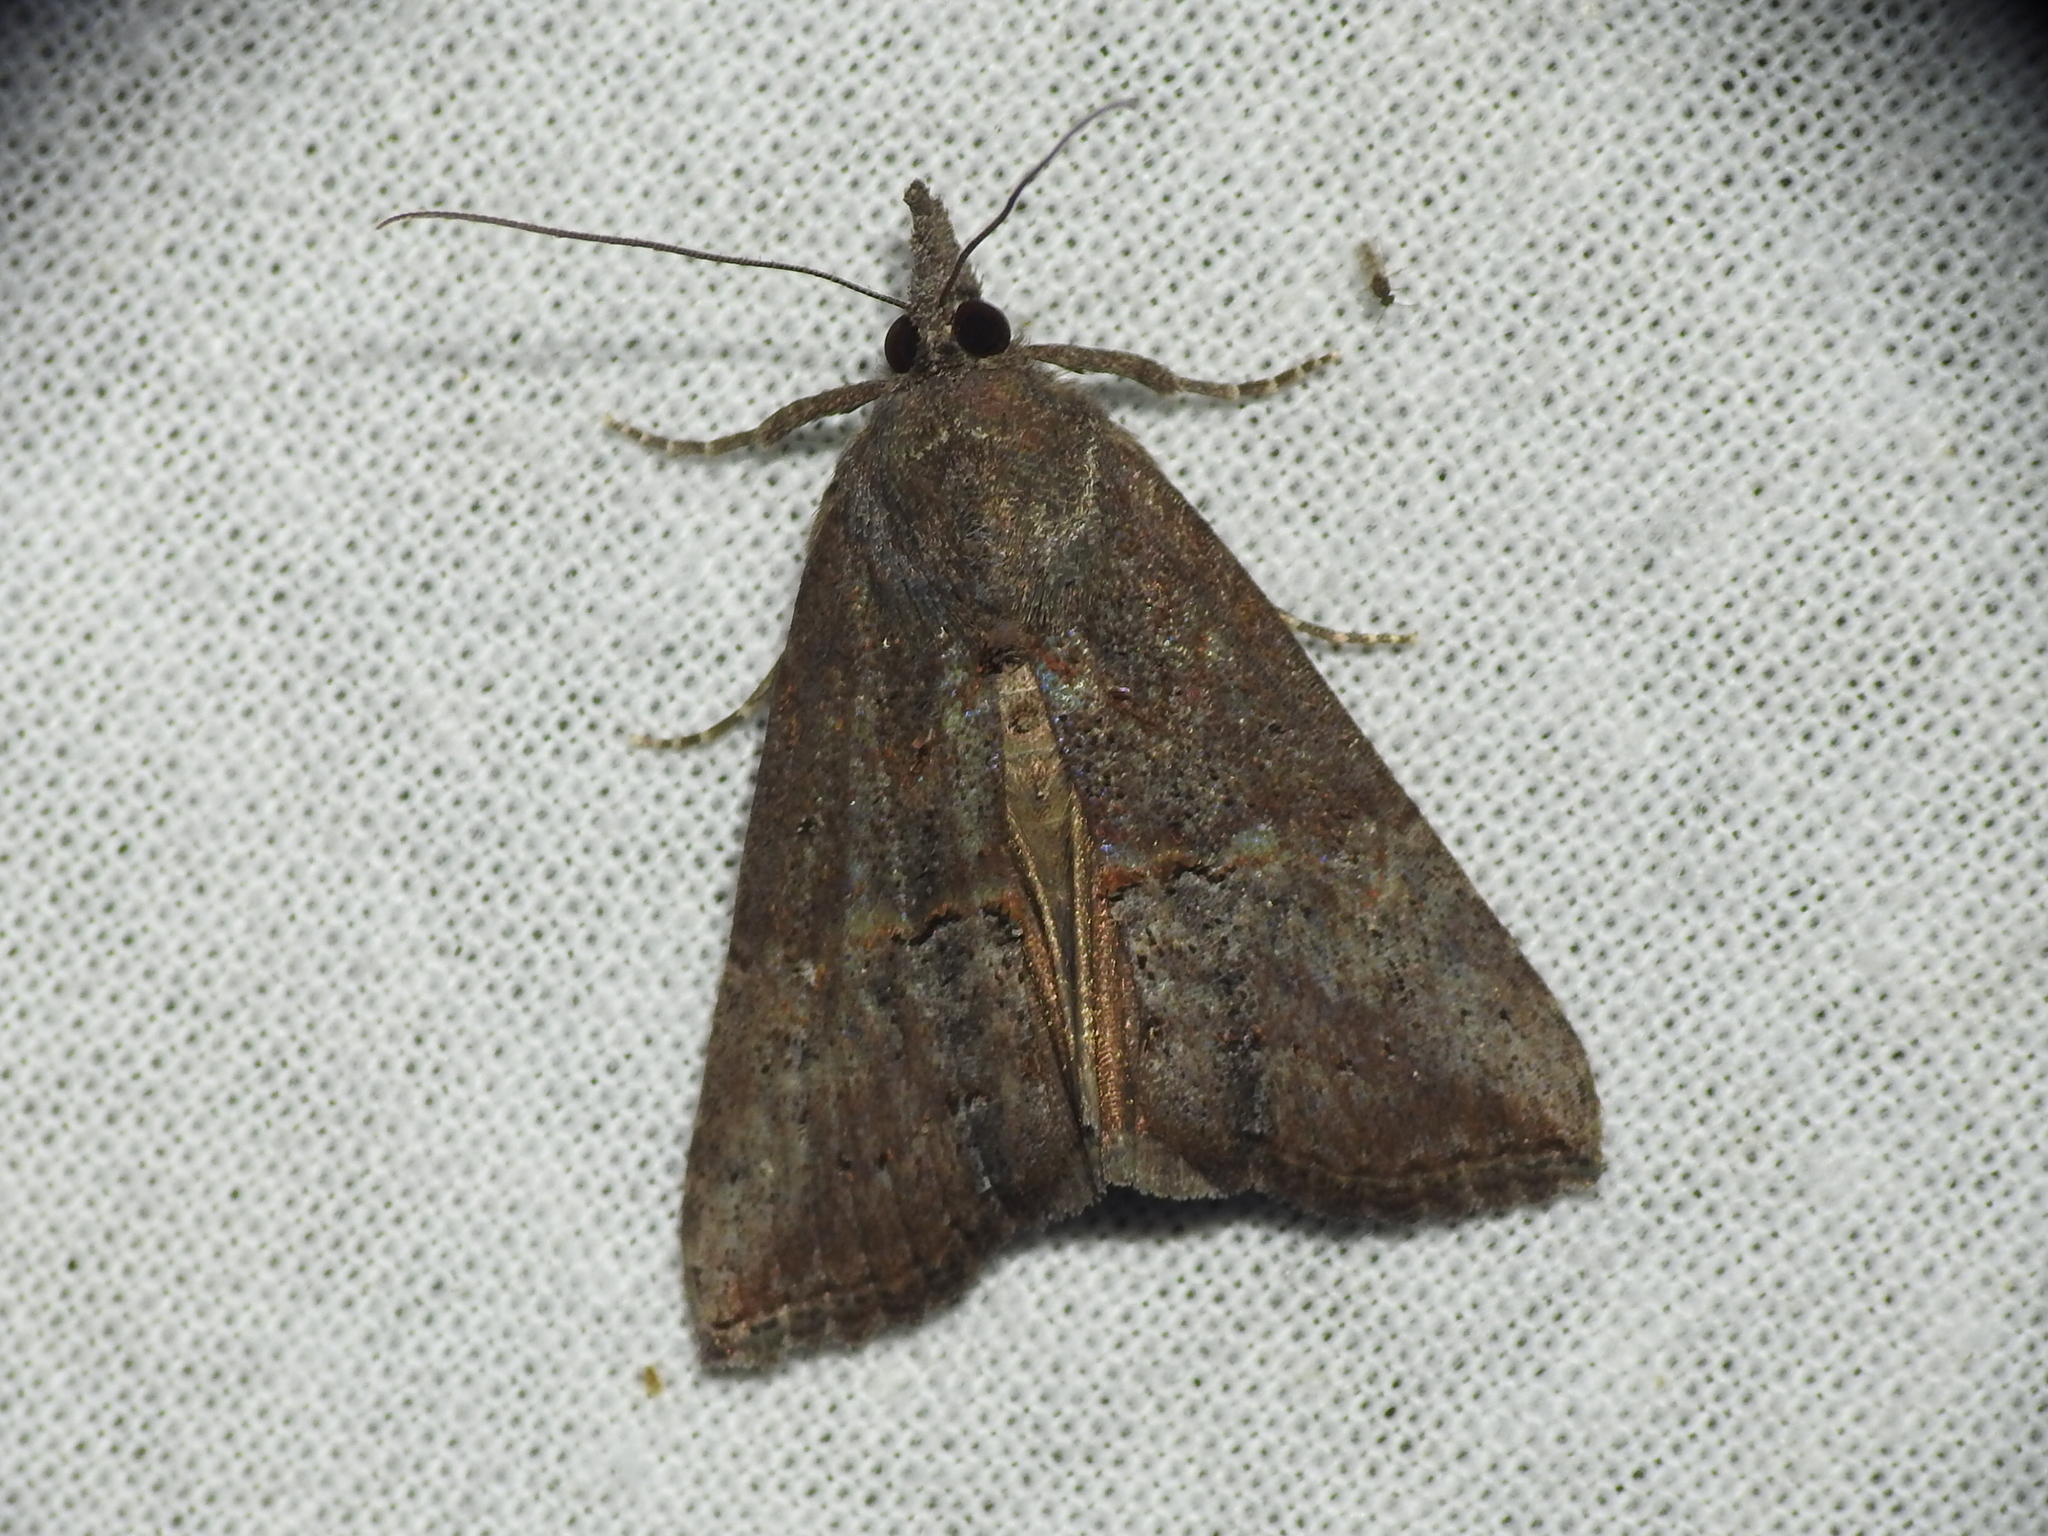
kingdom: Animalia
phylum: Arthropoda
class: Insecta
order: Lepidoptera
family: Erebidae
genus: Hypena
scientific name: Hypena scabra
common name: Green cloverworm
